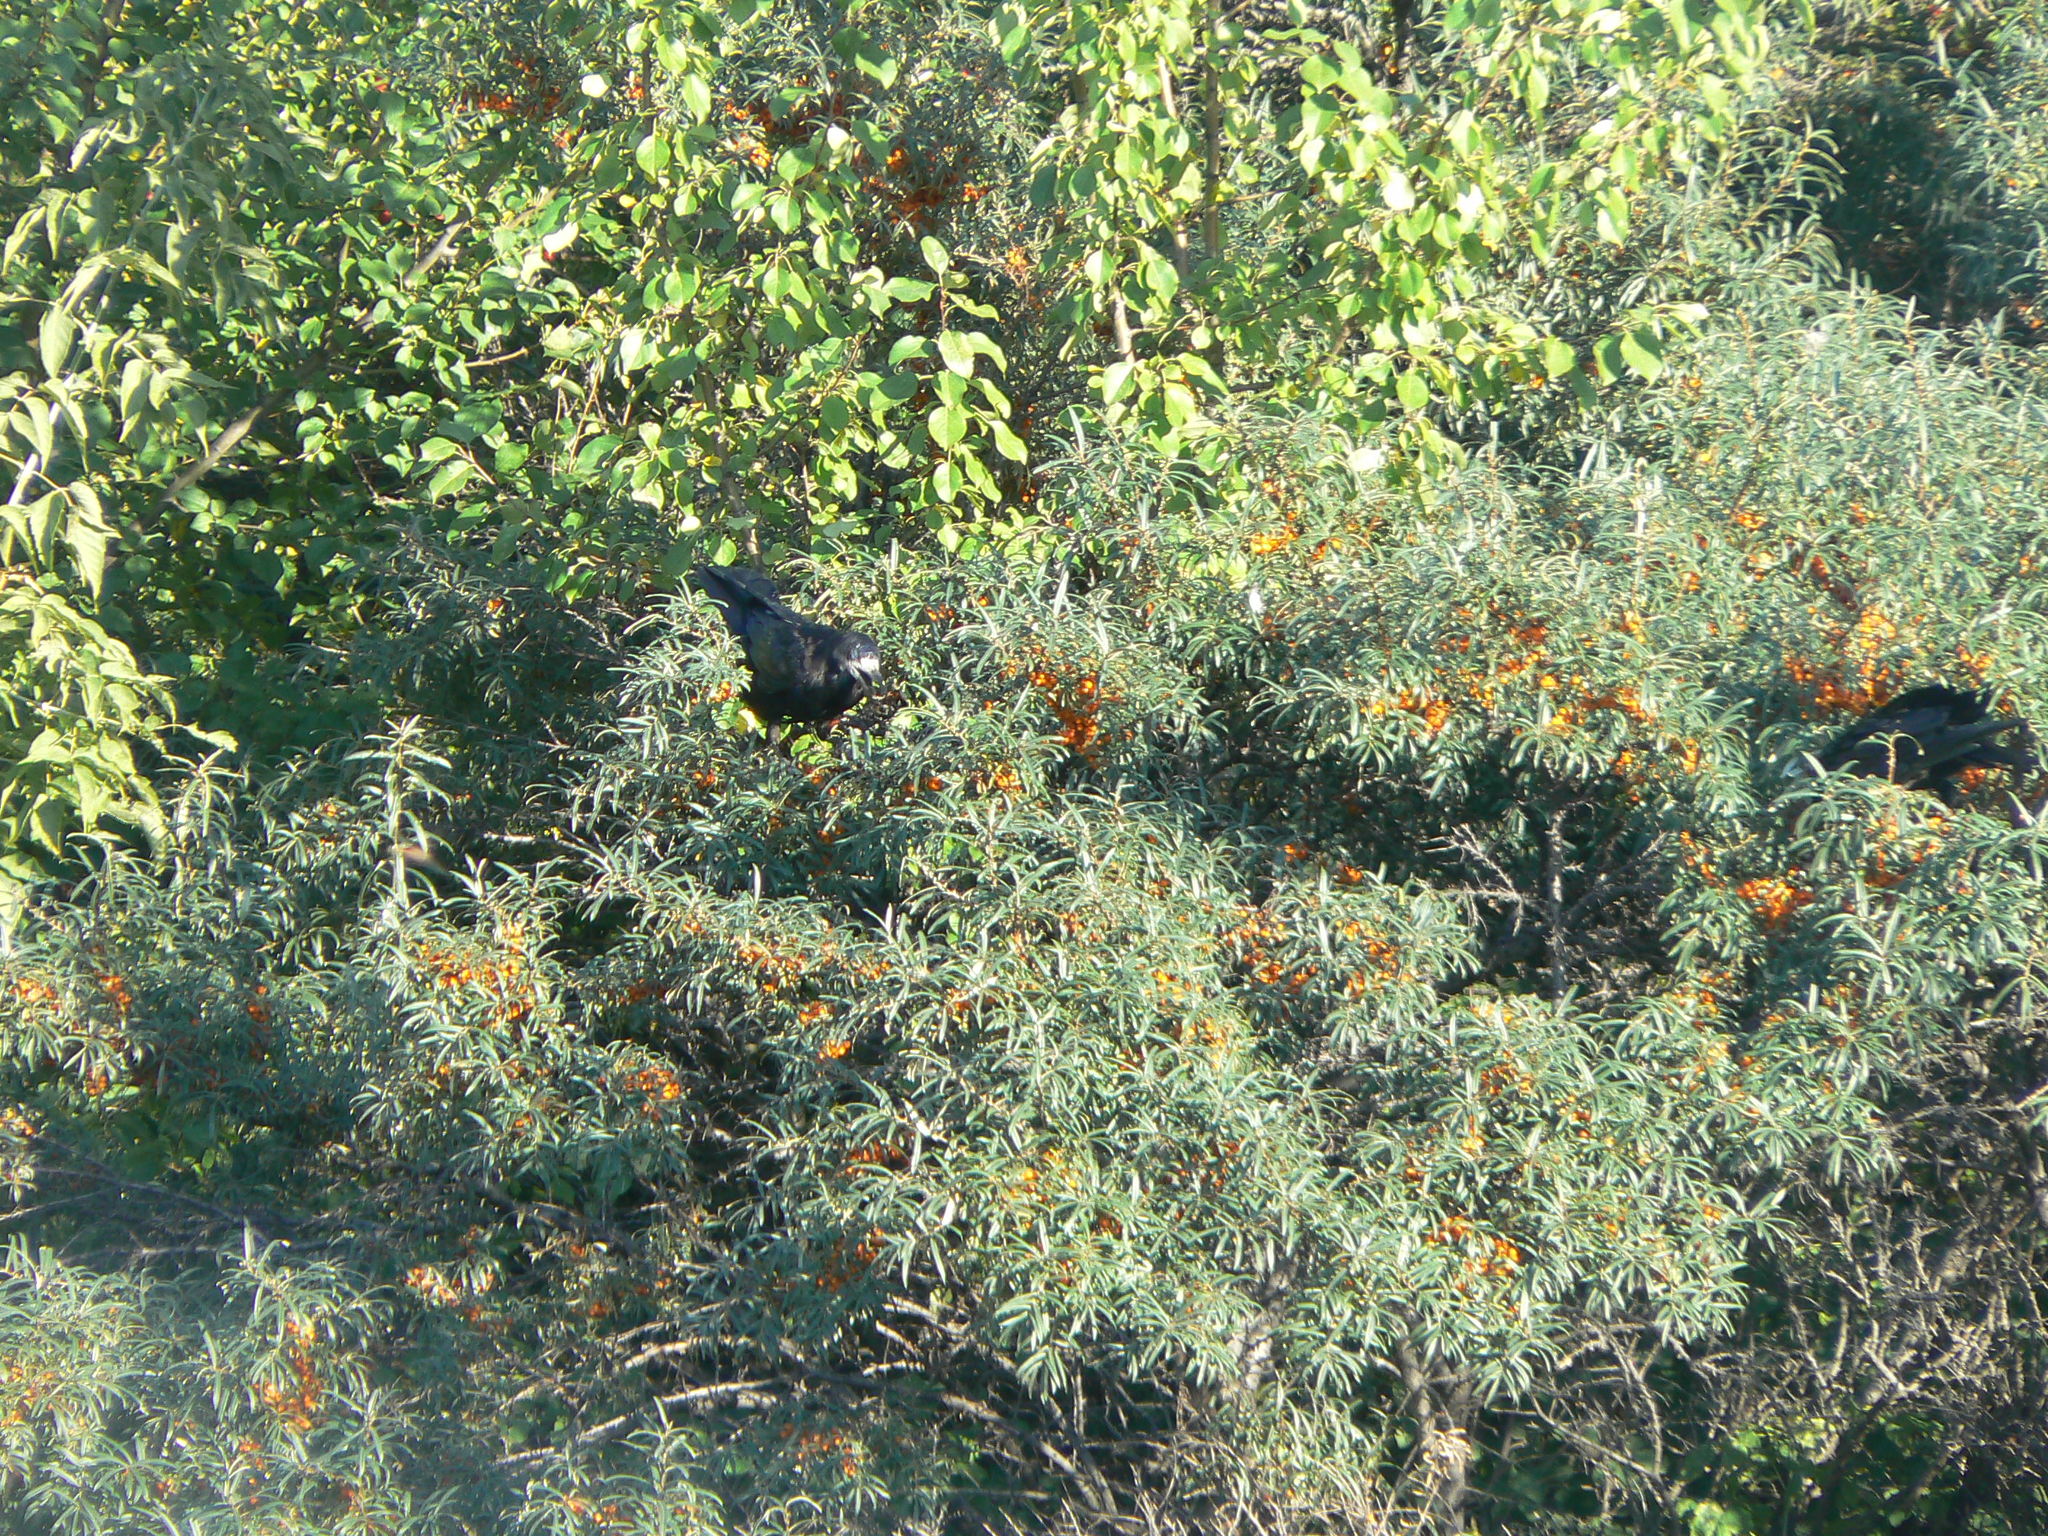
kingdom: Plantae
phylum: Tracheophyta
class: Magnoliopsida
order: Rosales
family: Elaeagnaceae
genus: Hippophae
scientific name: Hippophae rhamnoides
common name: Sea-buckthorn
